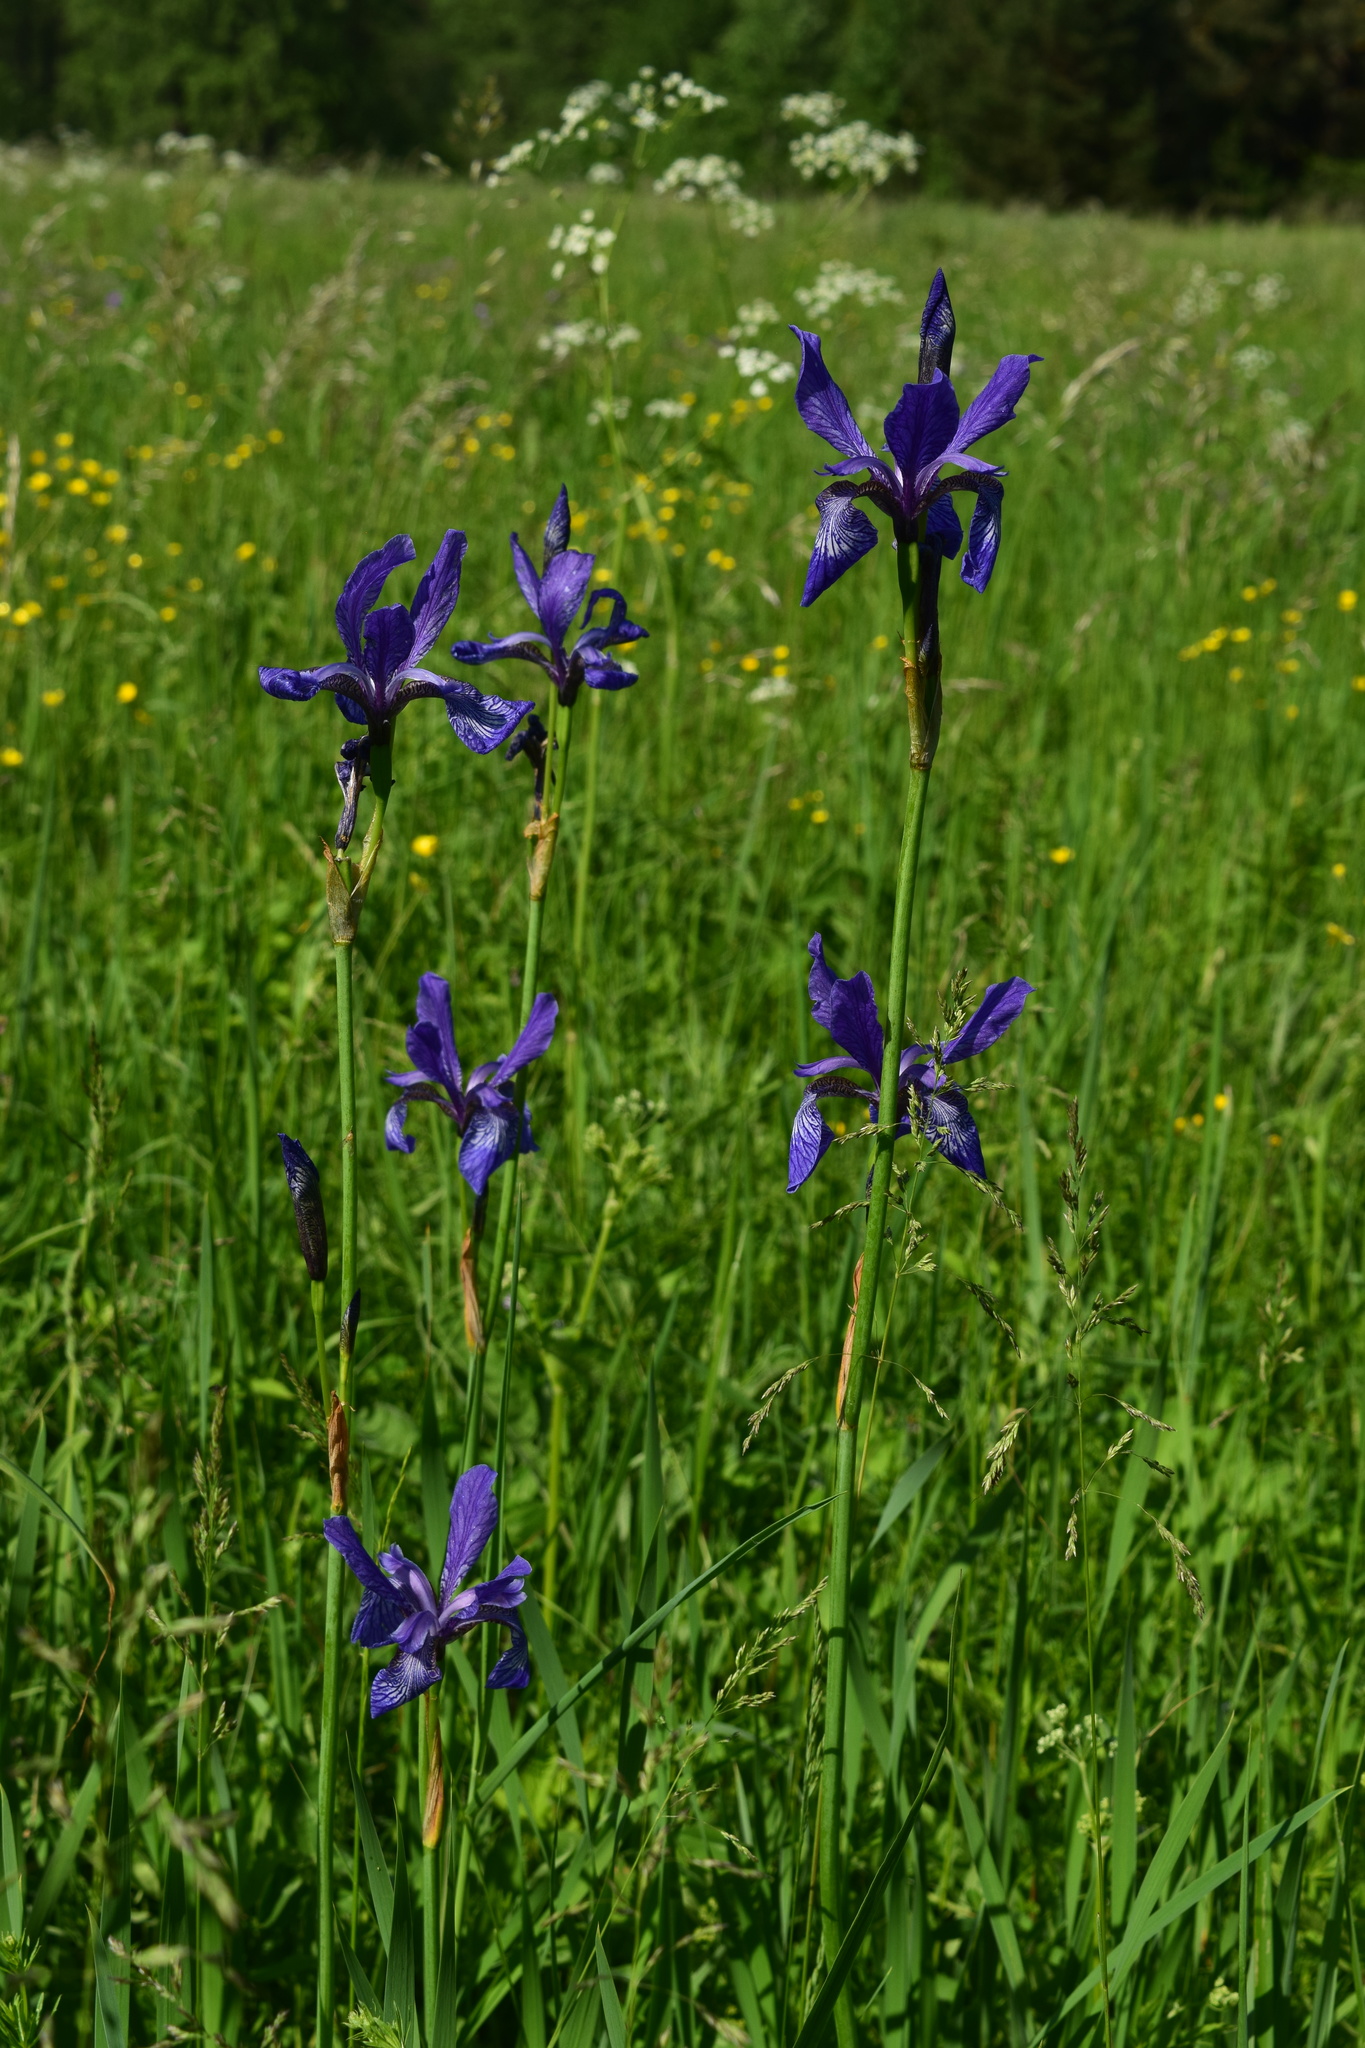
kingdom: Plantae
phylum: Tracheophyta
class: Liliopsida
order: Asparagales
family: Iridaceae
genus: Iris
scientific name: Iris sibirica
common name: Siberian iris
